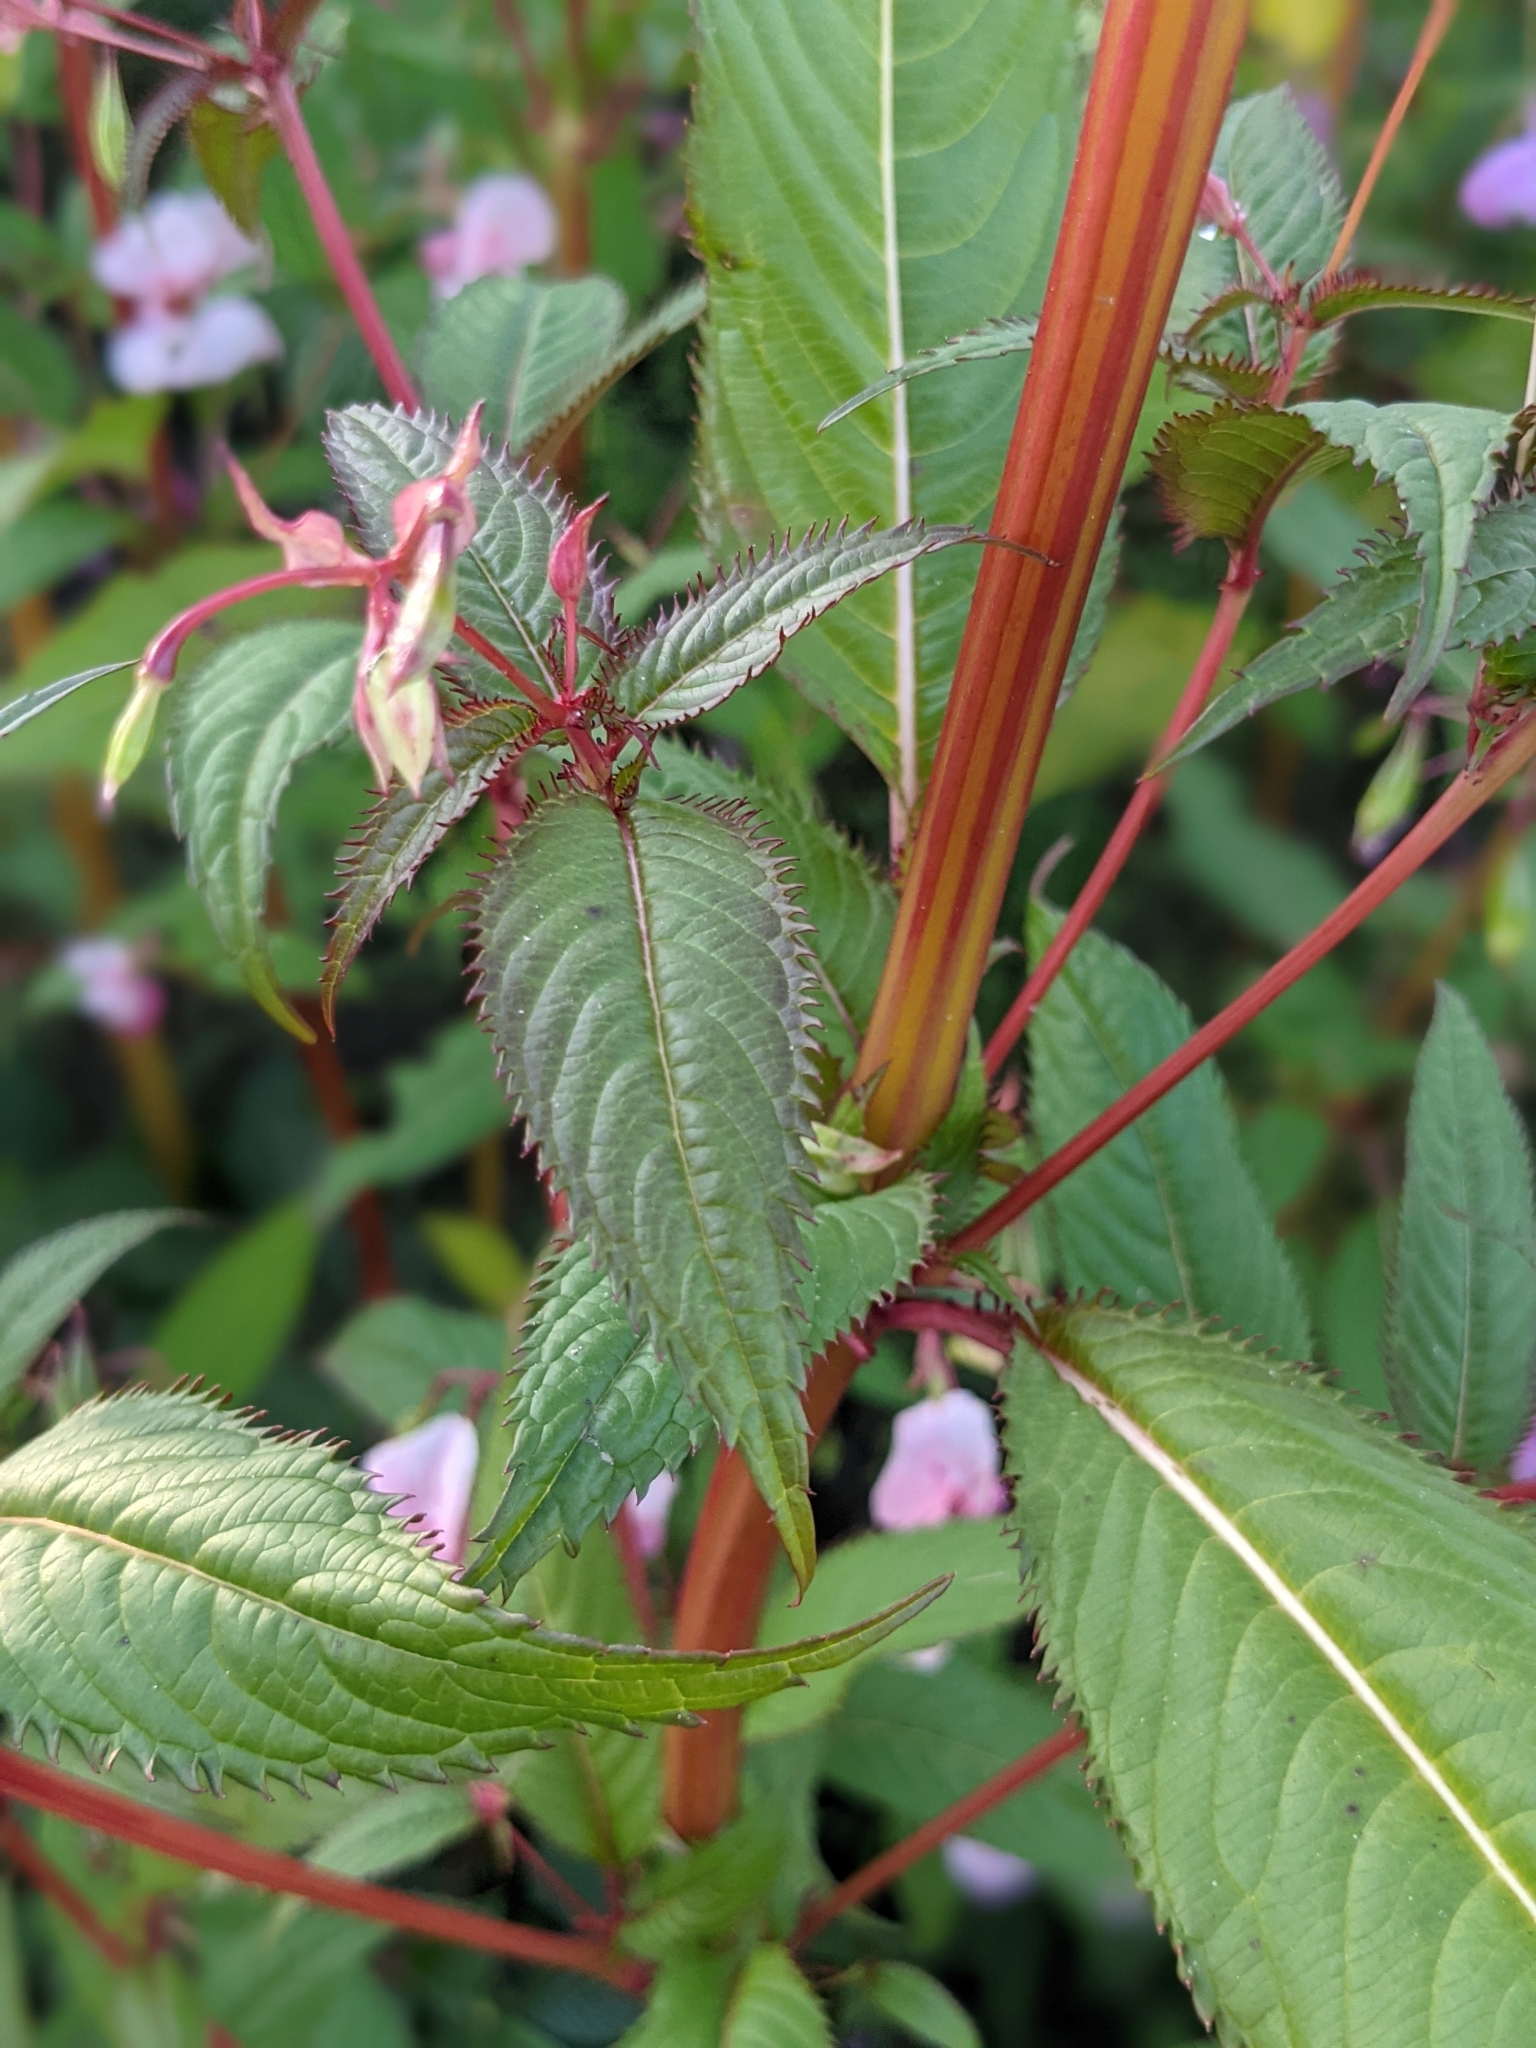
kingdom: Plantae
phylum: Tracheophyta
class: Magnoliopsida
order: Ericales
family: Balsaminaceae
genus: Impatiens
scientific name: Impatiens glandulifera
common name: Himalayan balsam
